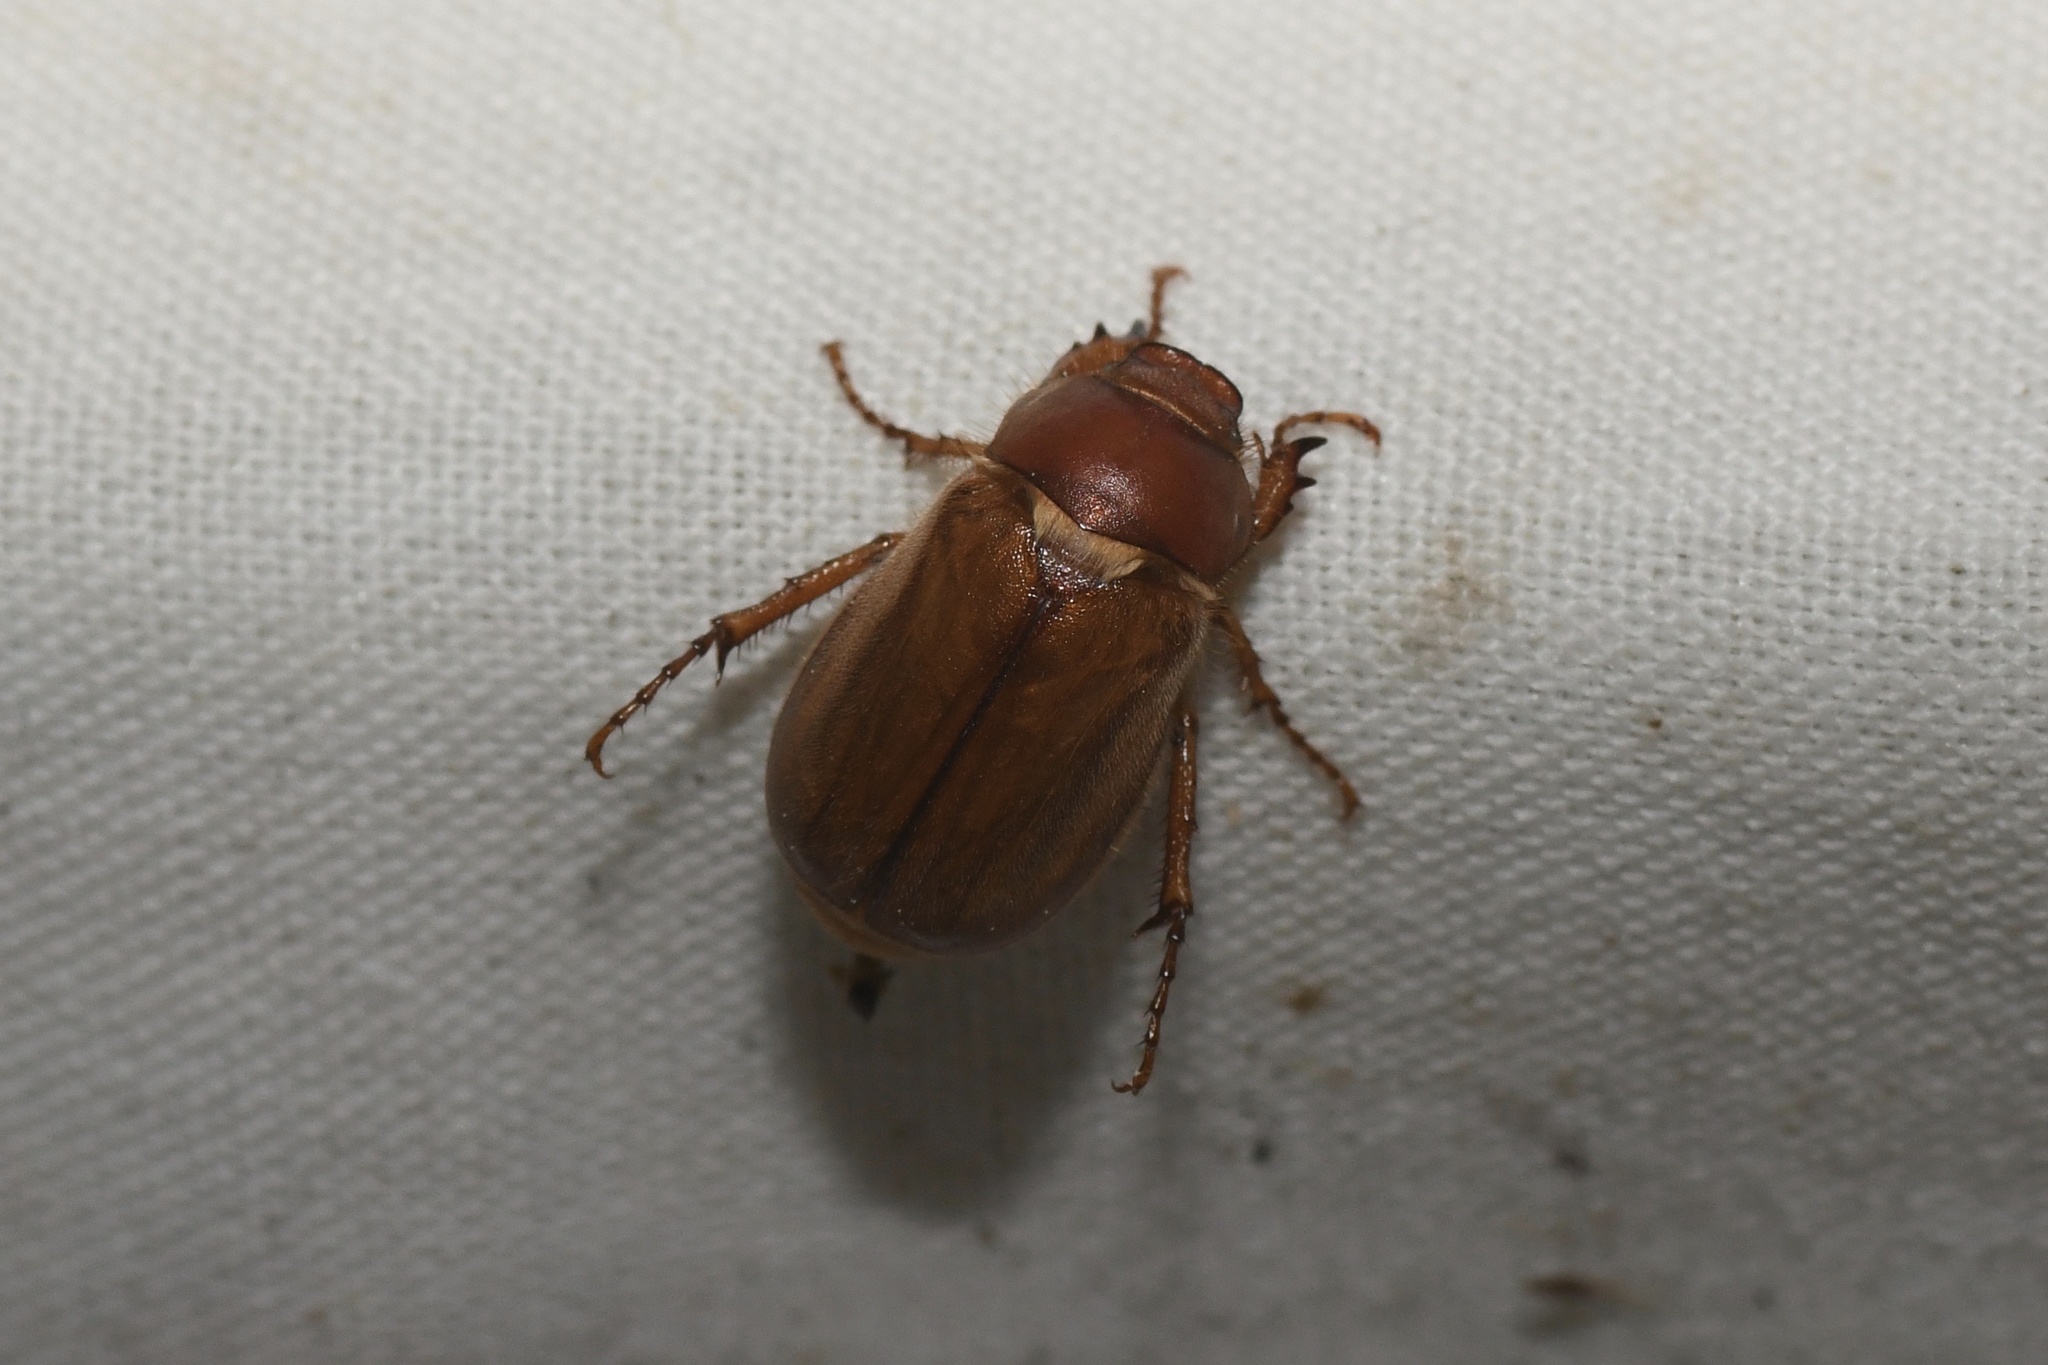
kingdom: Animalia
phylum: Arthropoda
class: Insecta
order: Coleoptera
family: Scarabaeidae
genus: Amphimallon
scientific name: Amphimallon majale
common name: European chafer
